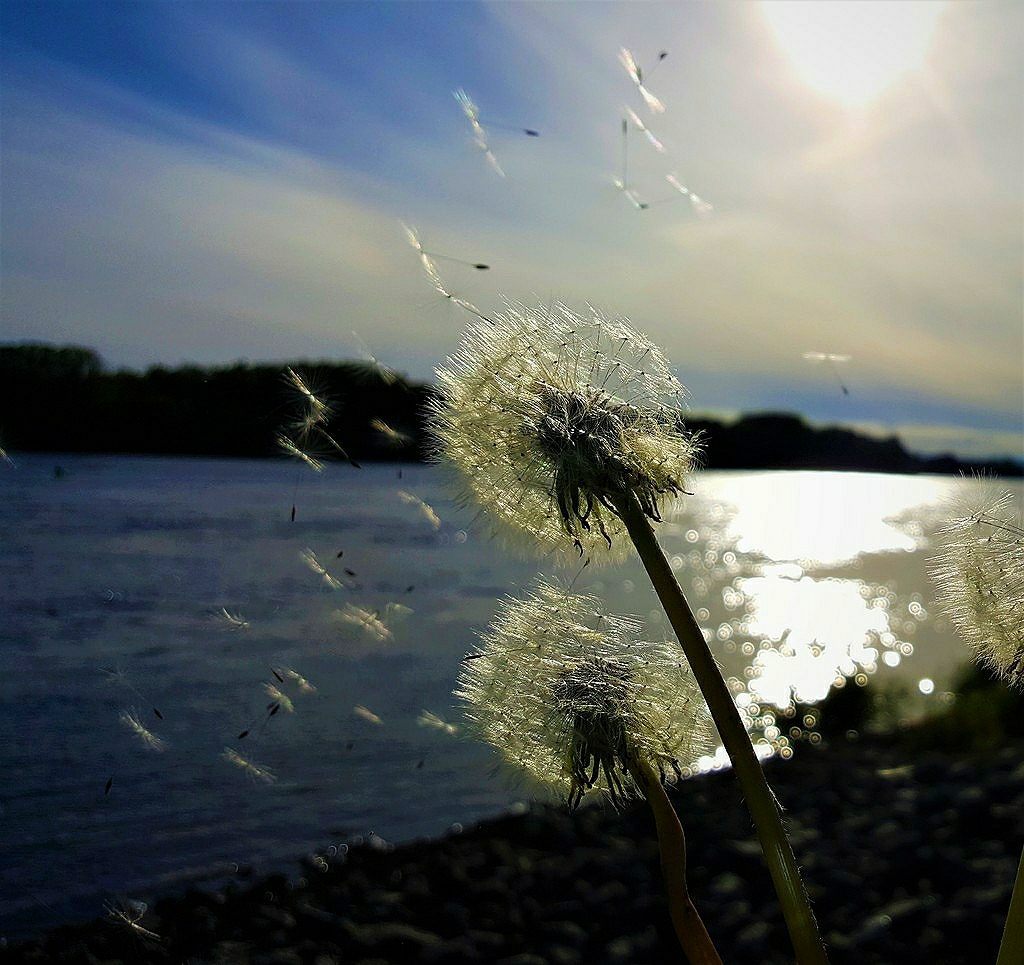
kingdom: Plantae
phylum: Tracheophyta
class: Magnoliopsida
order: Asterales
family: Asteraceae
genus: Taraxacum
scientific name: Taraxacum officinale
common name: Common dandelion
